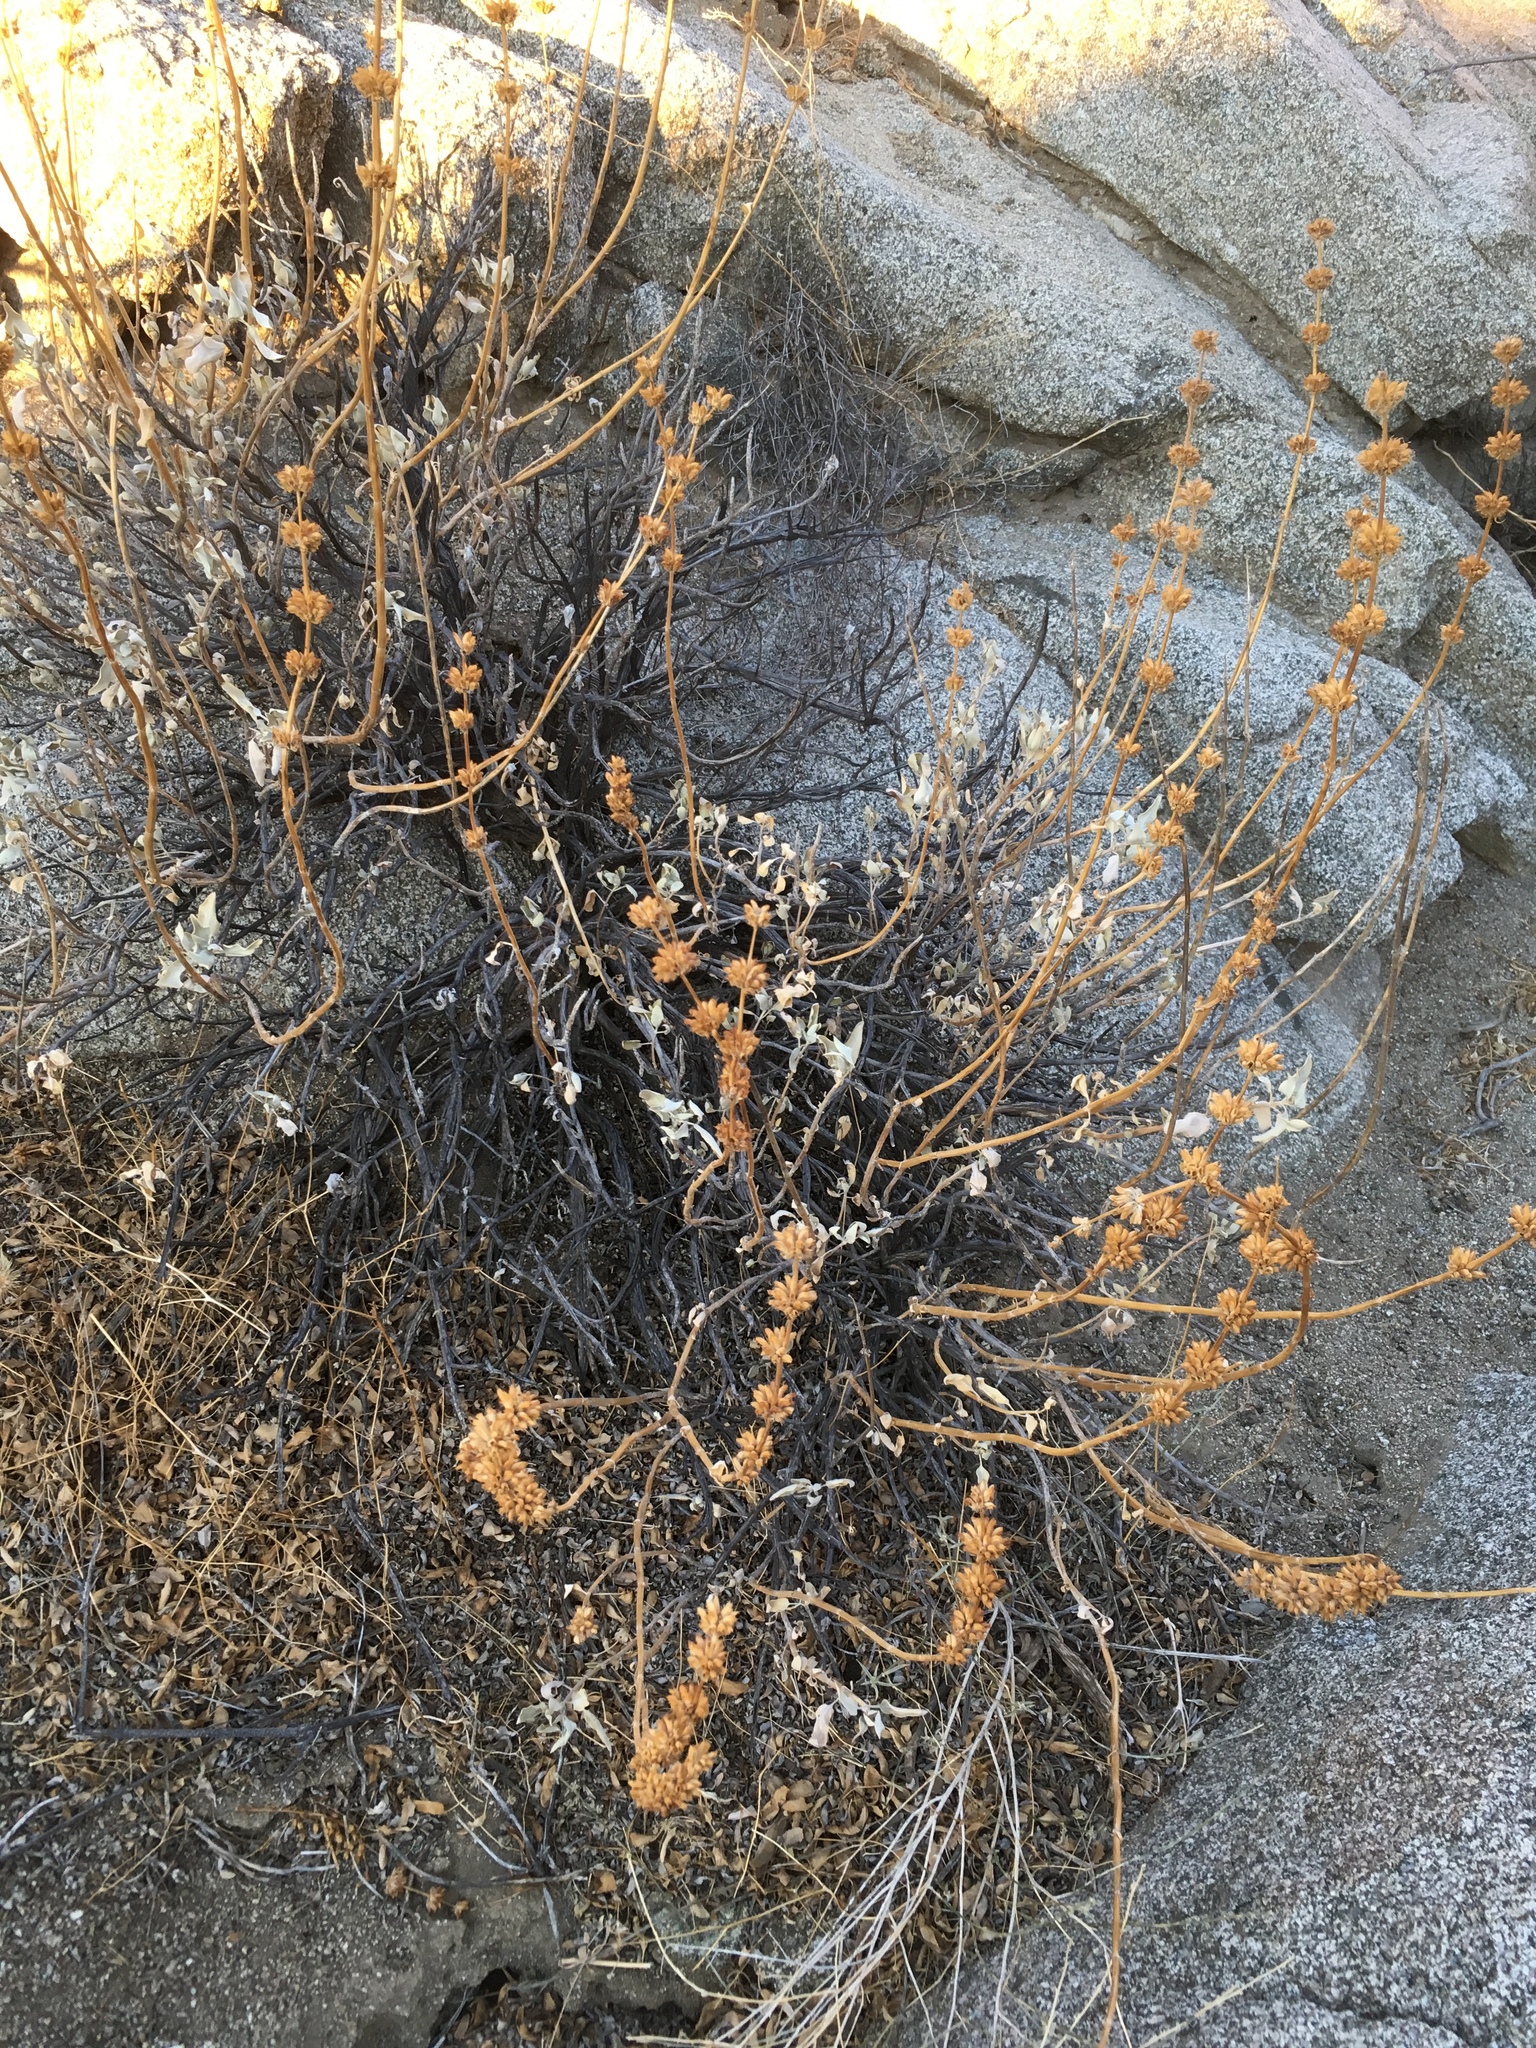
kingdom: Plantae
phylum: Tracheophyta
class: Magnoliopsida
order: Lamiales
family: Lamiaceae
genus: Salvia
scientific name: Salvia vaseyi
